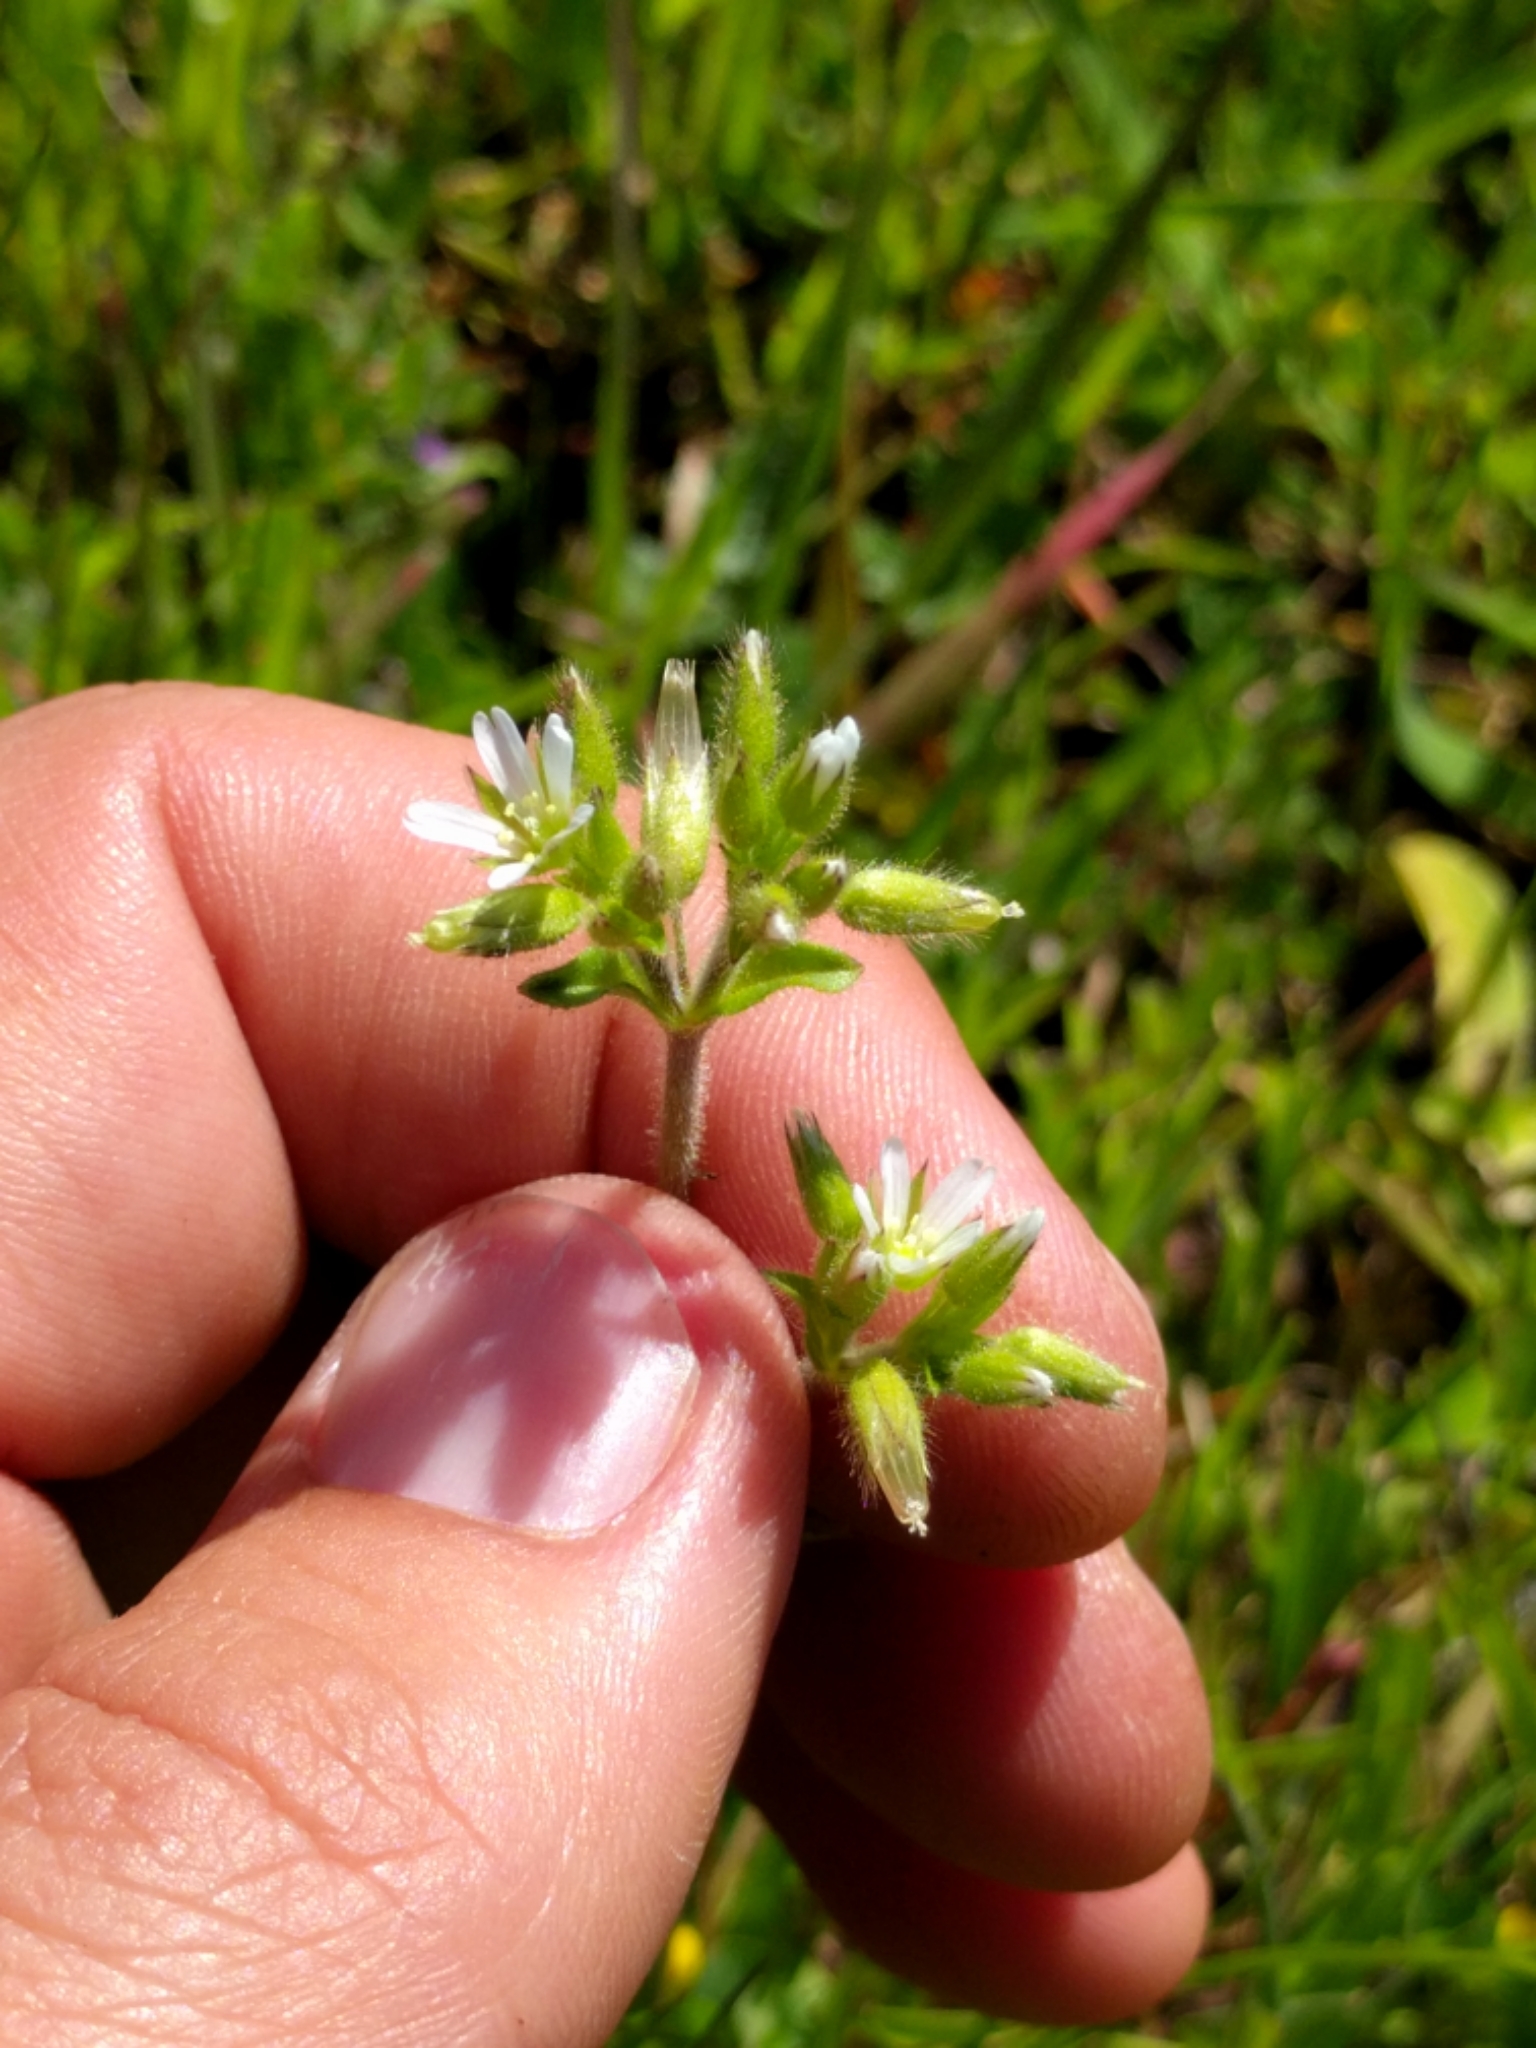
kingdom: Plantae
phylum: Tracheophyta
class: Magnoliopsida
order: Caryophyllales
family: Caryophyllaceae
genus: Cerastium
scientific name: Cerastium glomeratum
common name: Sticky chickweed
